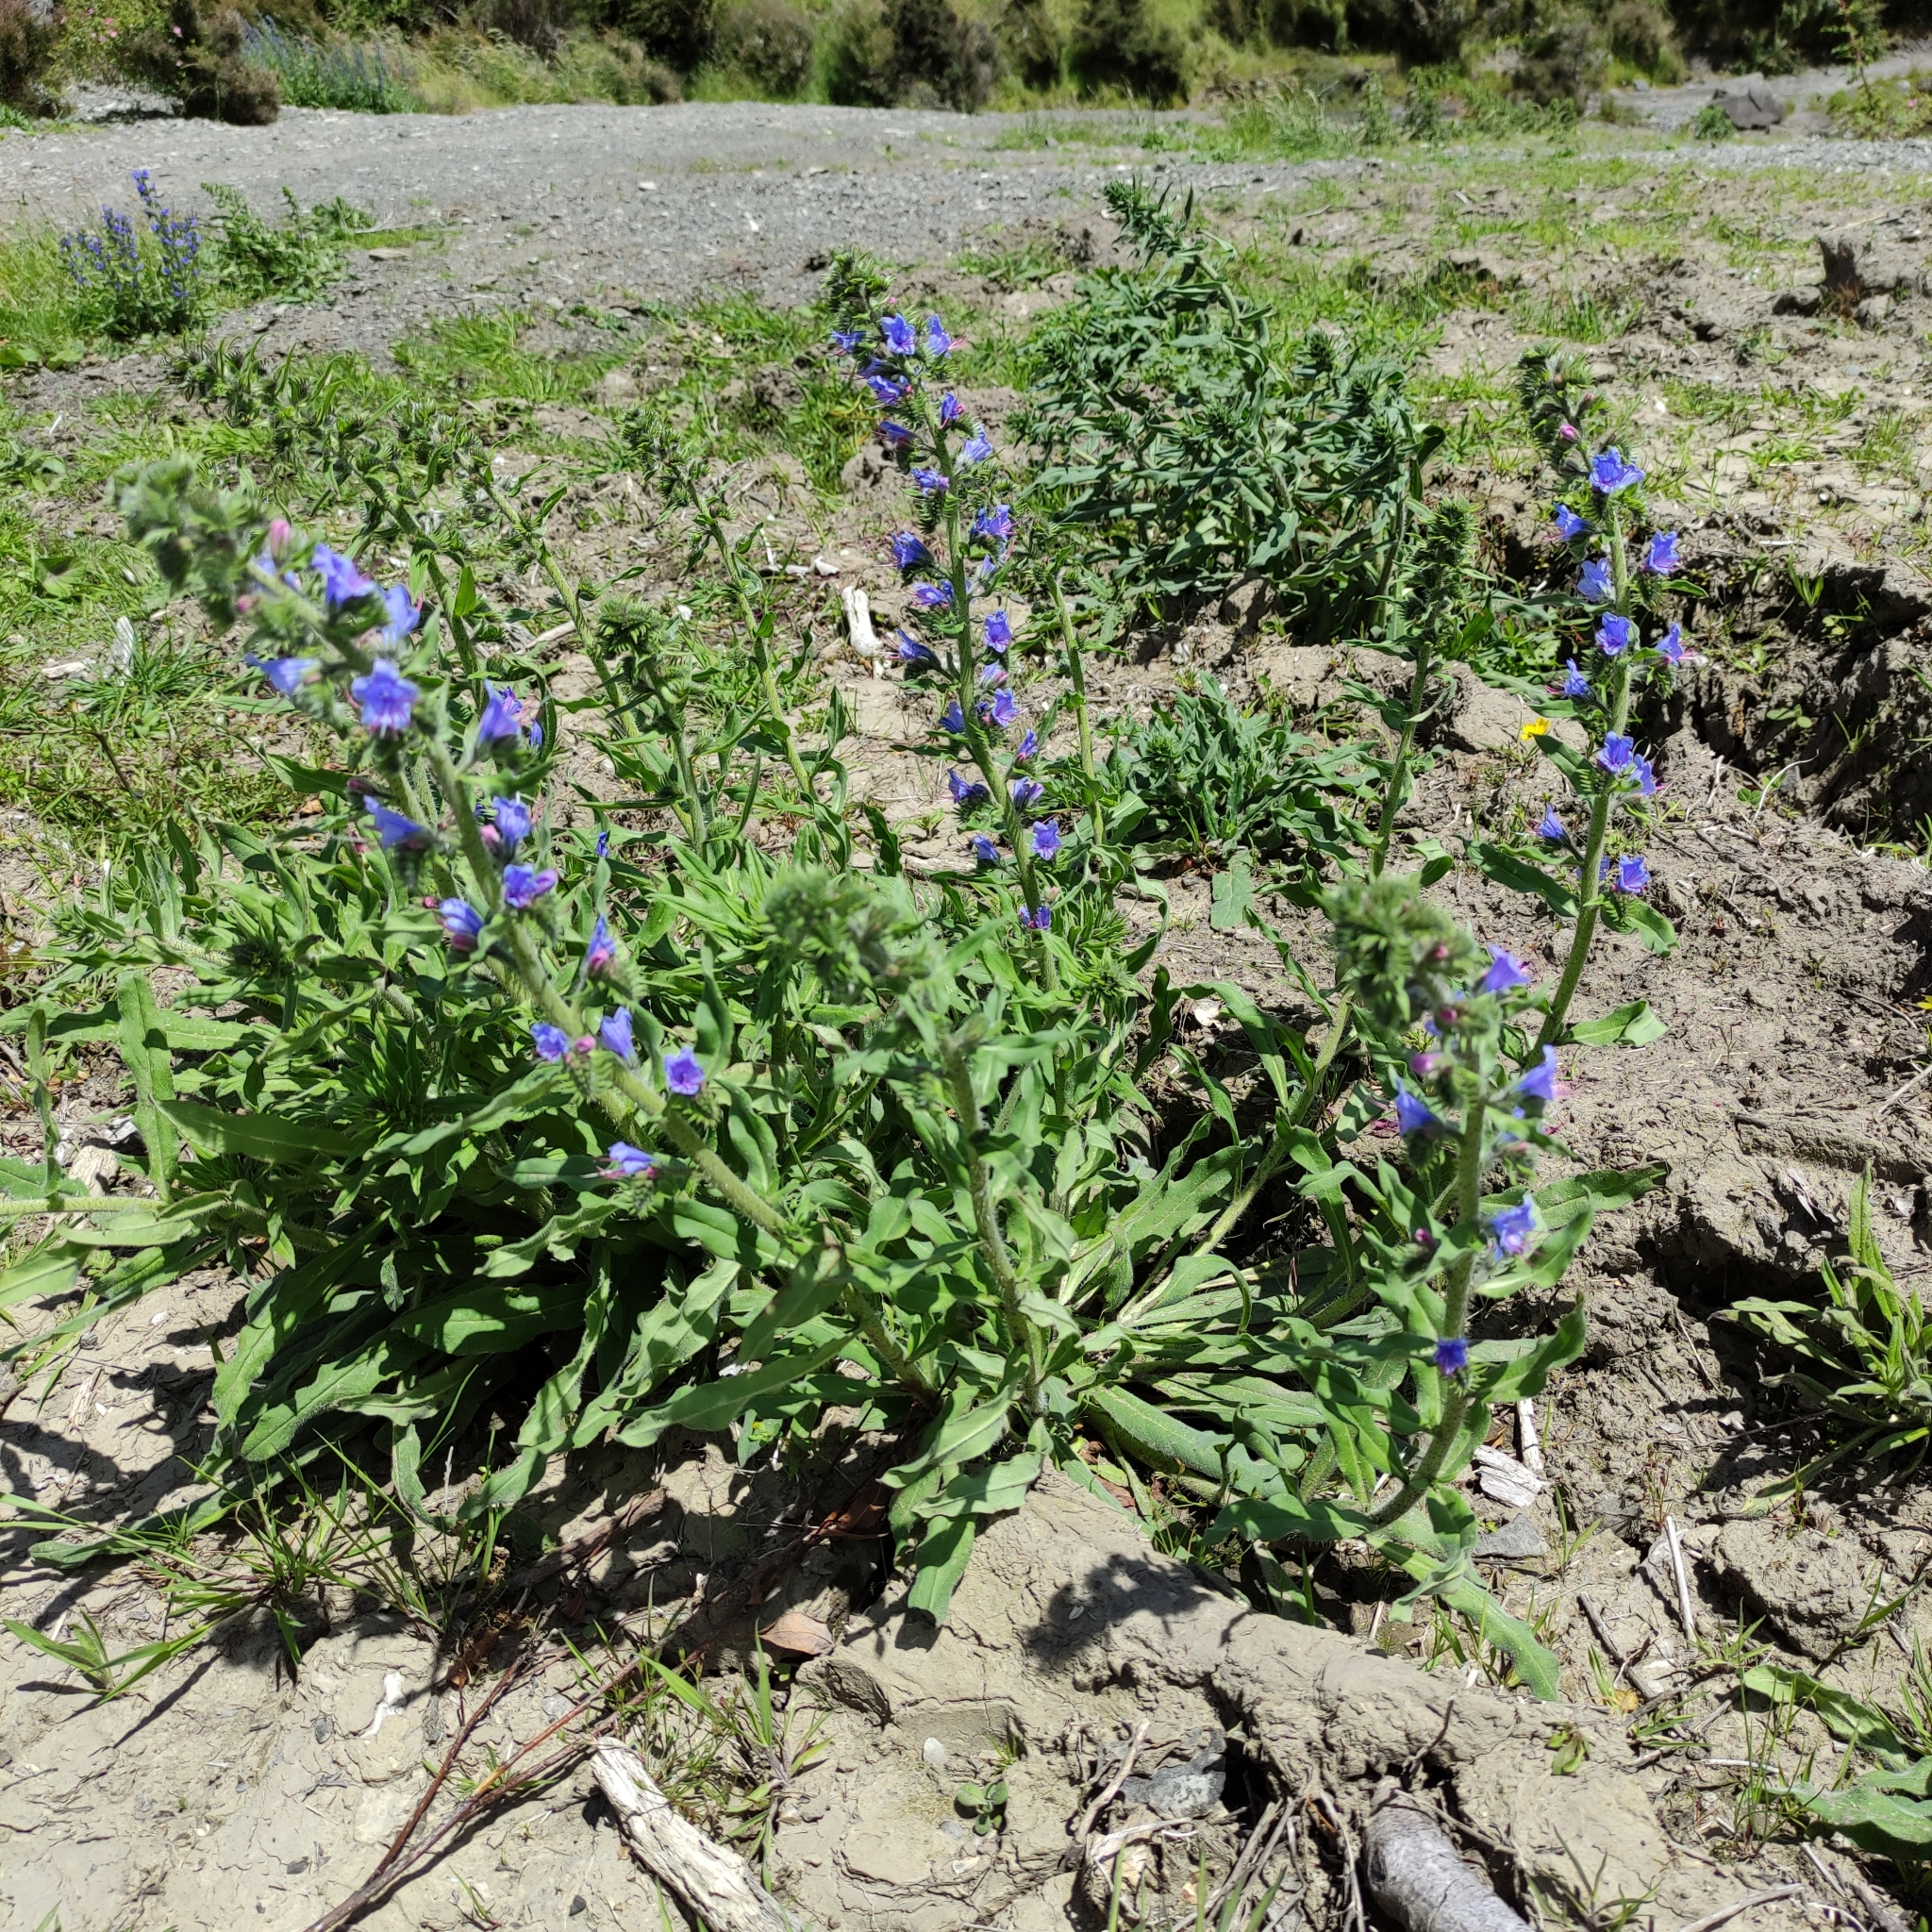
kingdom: Plantae
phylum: Tracheophyta
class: Magnoliopsida
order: Boraginales
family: Boraginaceae
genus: Echium
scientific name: Echium vulgare
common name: Common viper's bugloss
